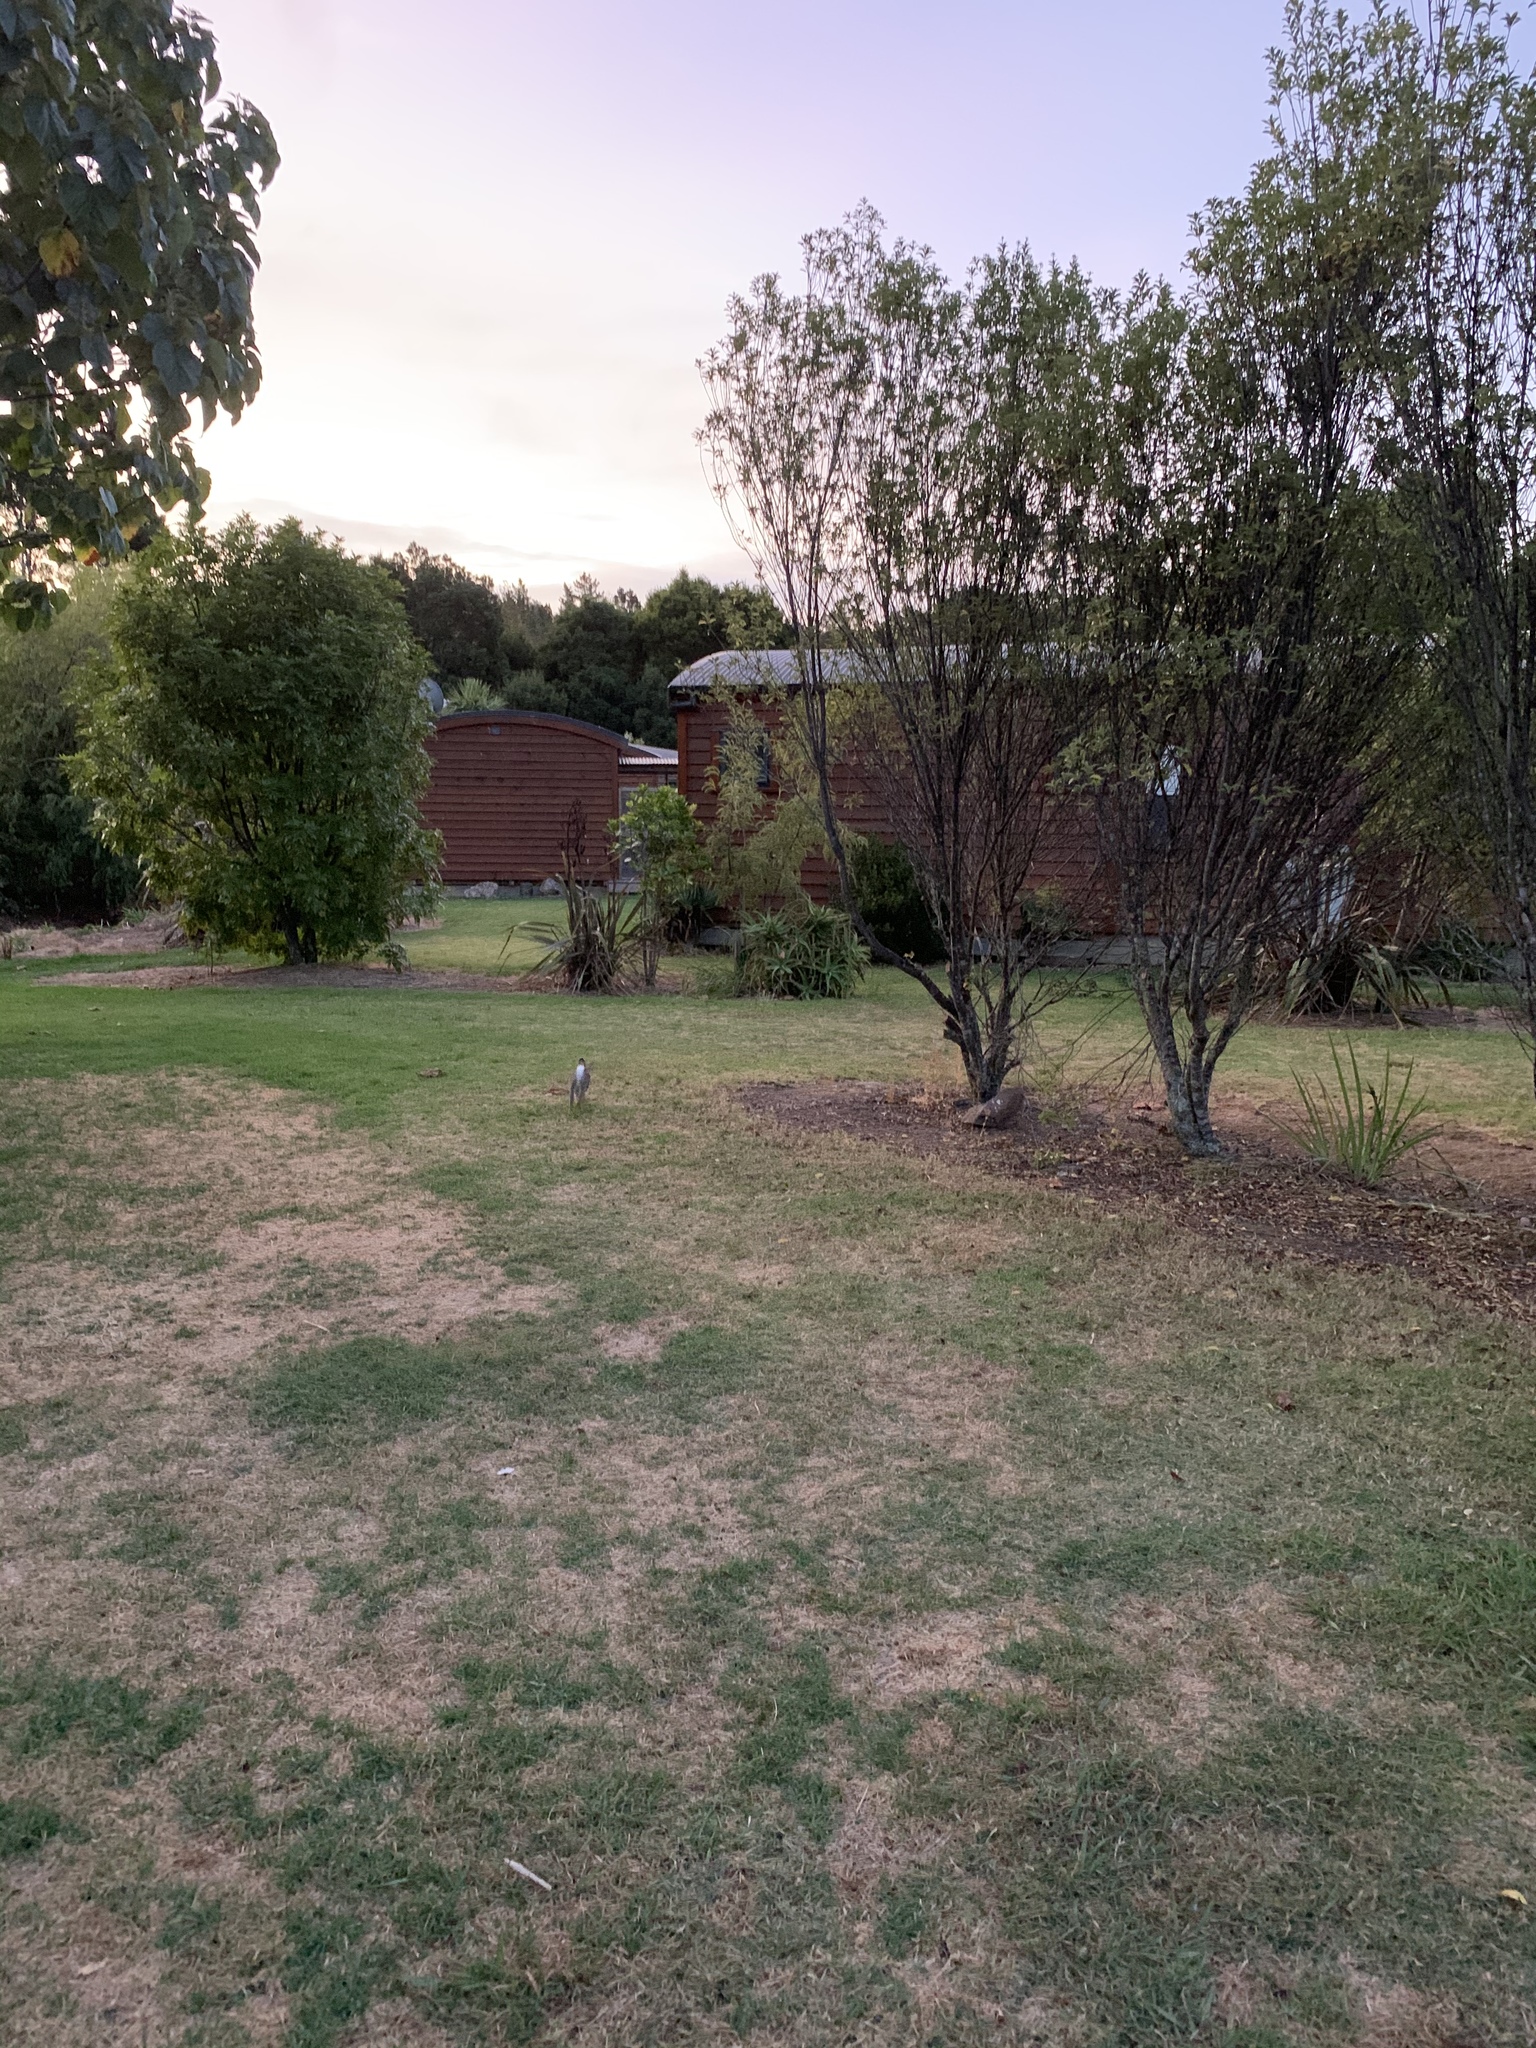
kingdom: Animalia
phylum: Chordata
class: Mammalia
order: Lagomorpha
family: Leporidae
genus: Lepus
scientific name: Lepus europaeus
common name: European hare
